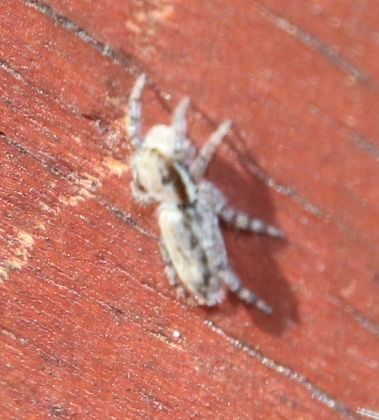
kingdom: Animalia
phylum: Arthropoda
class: Arachnida
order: Araneae
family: Salticidae
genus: Menemerus
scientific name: Menemerus bivittatus
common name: Gray wall jumper
